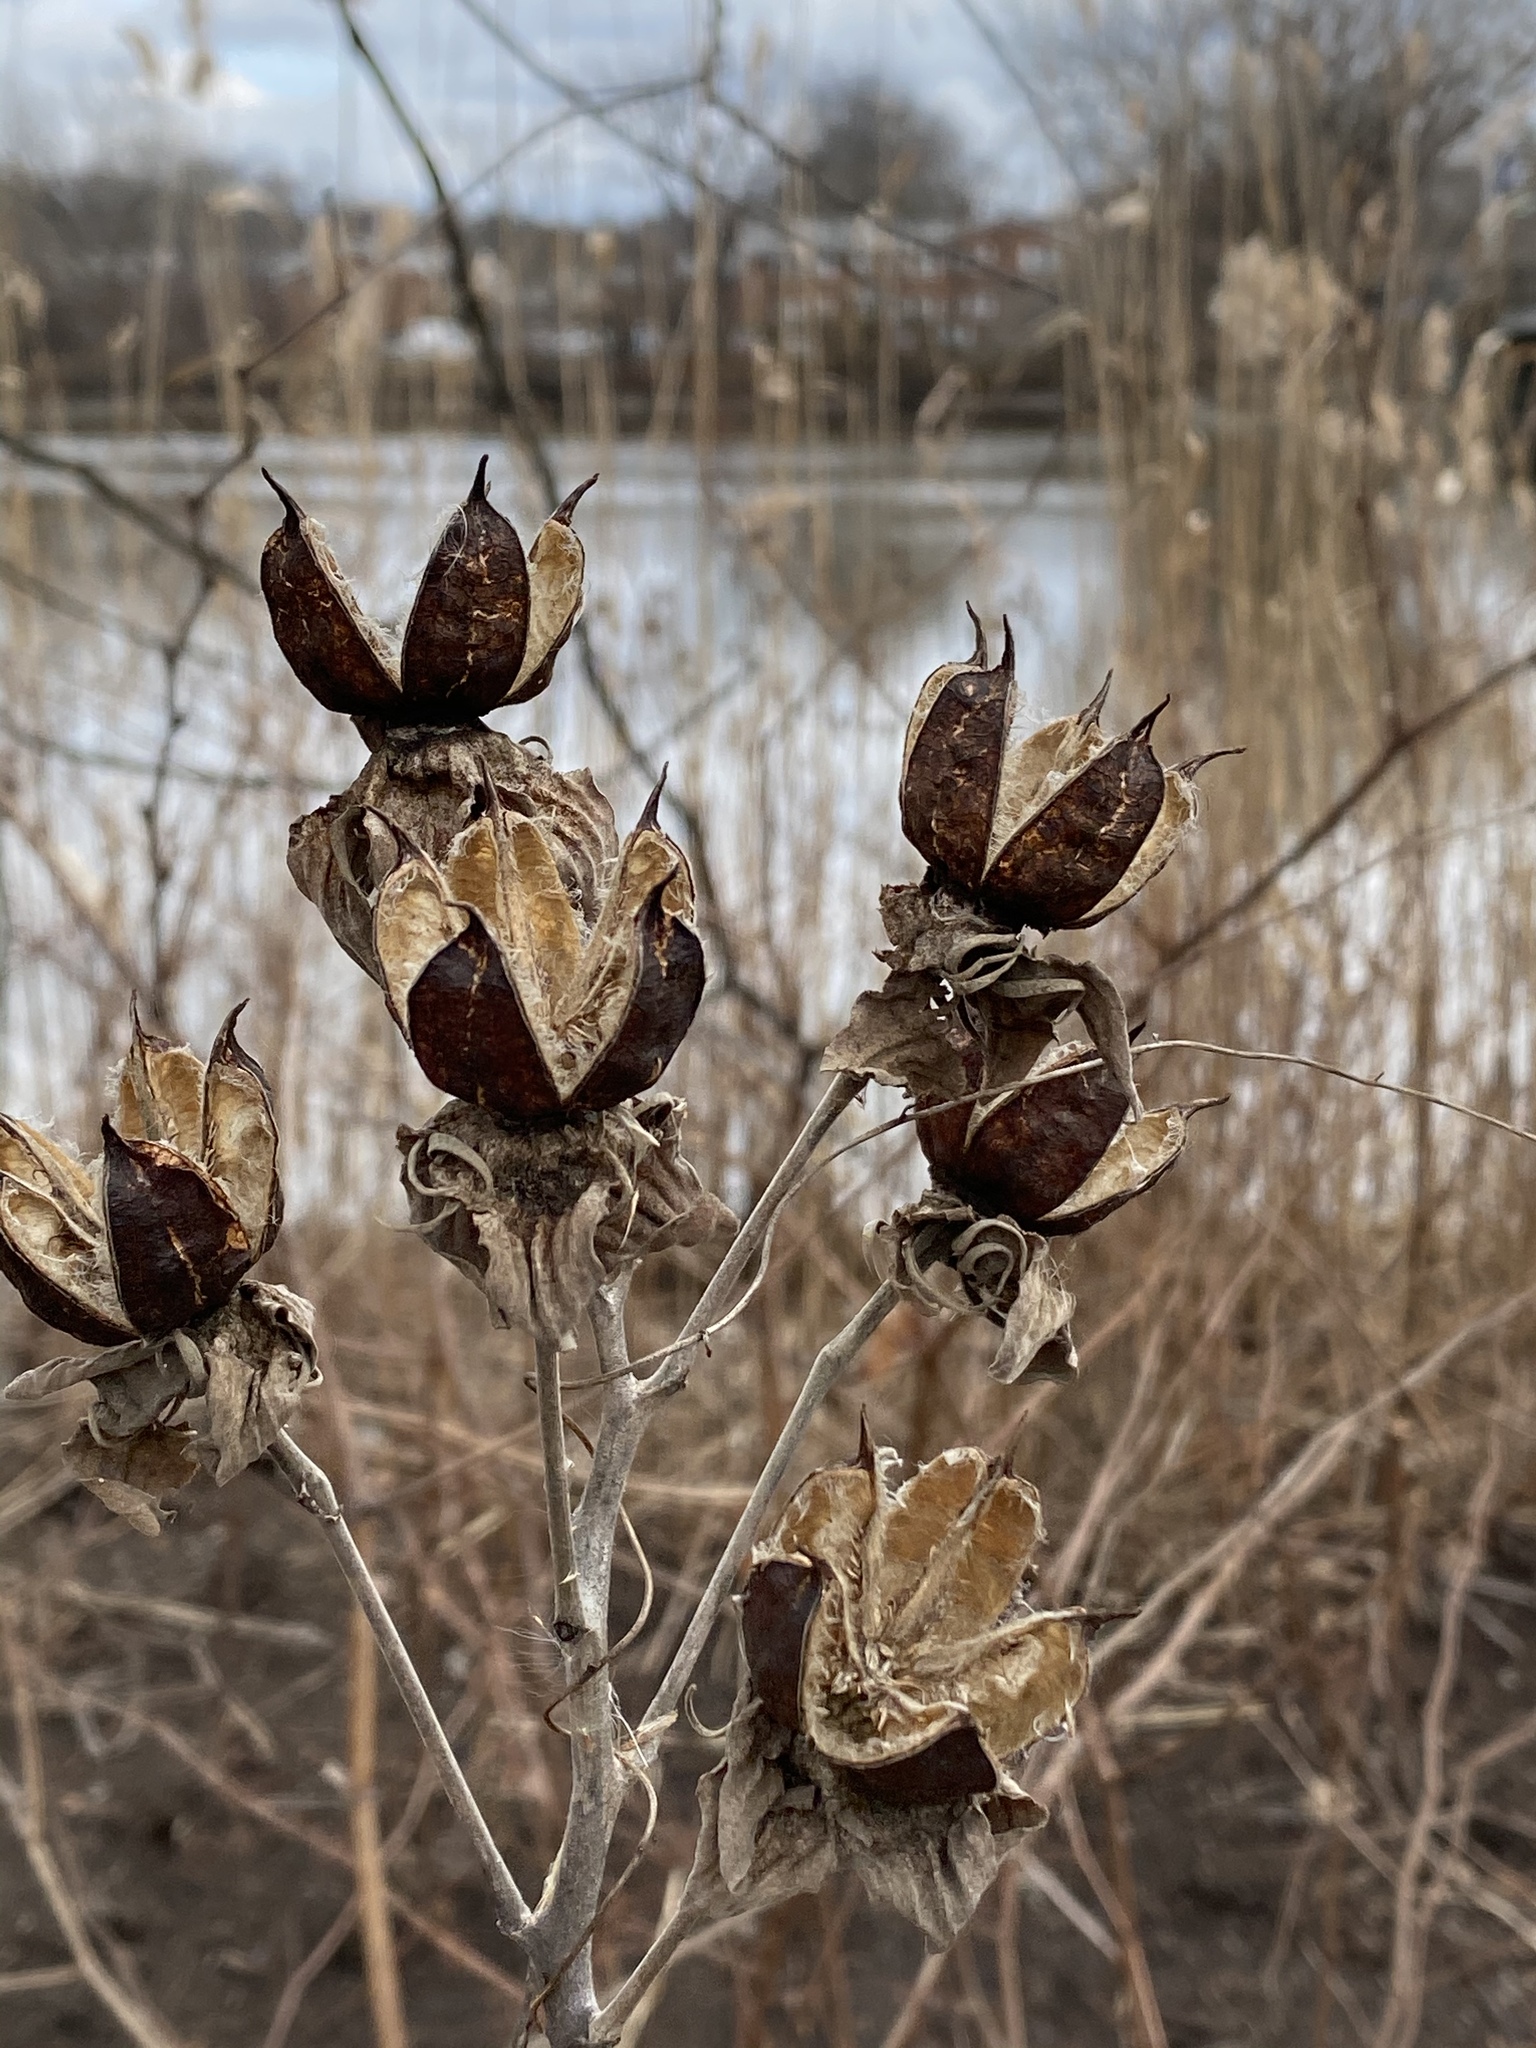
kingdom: Plantae
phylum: Tracheophyta
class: Magnoliopsida
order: Malvales
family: Malvaceae
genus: Hibiscus
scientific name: Hibiscus moscheutos
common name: Common rose-mallow
